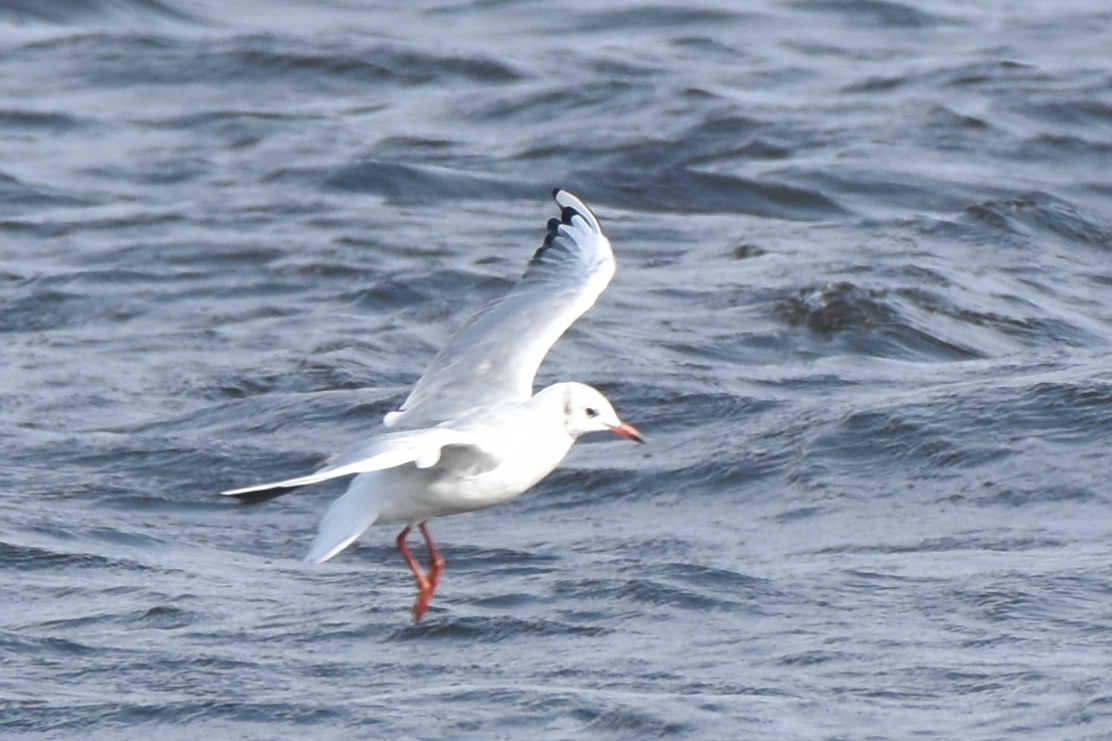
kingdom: Animalia
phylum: Chordata
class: Aves
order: Charadriiformes
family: Laridae
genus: Chroicocephalus
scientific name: Chroicocephalus ridibundus
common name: Black-headed gull
